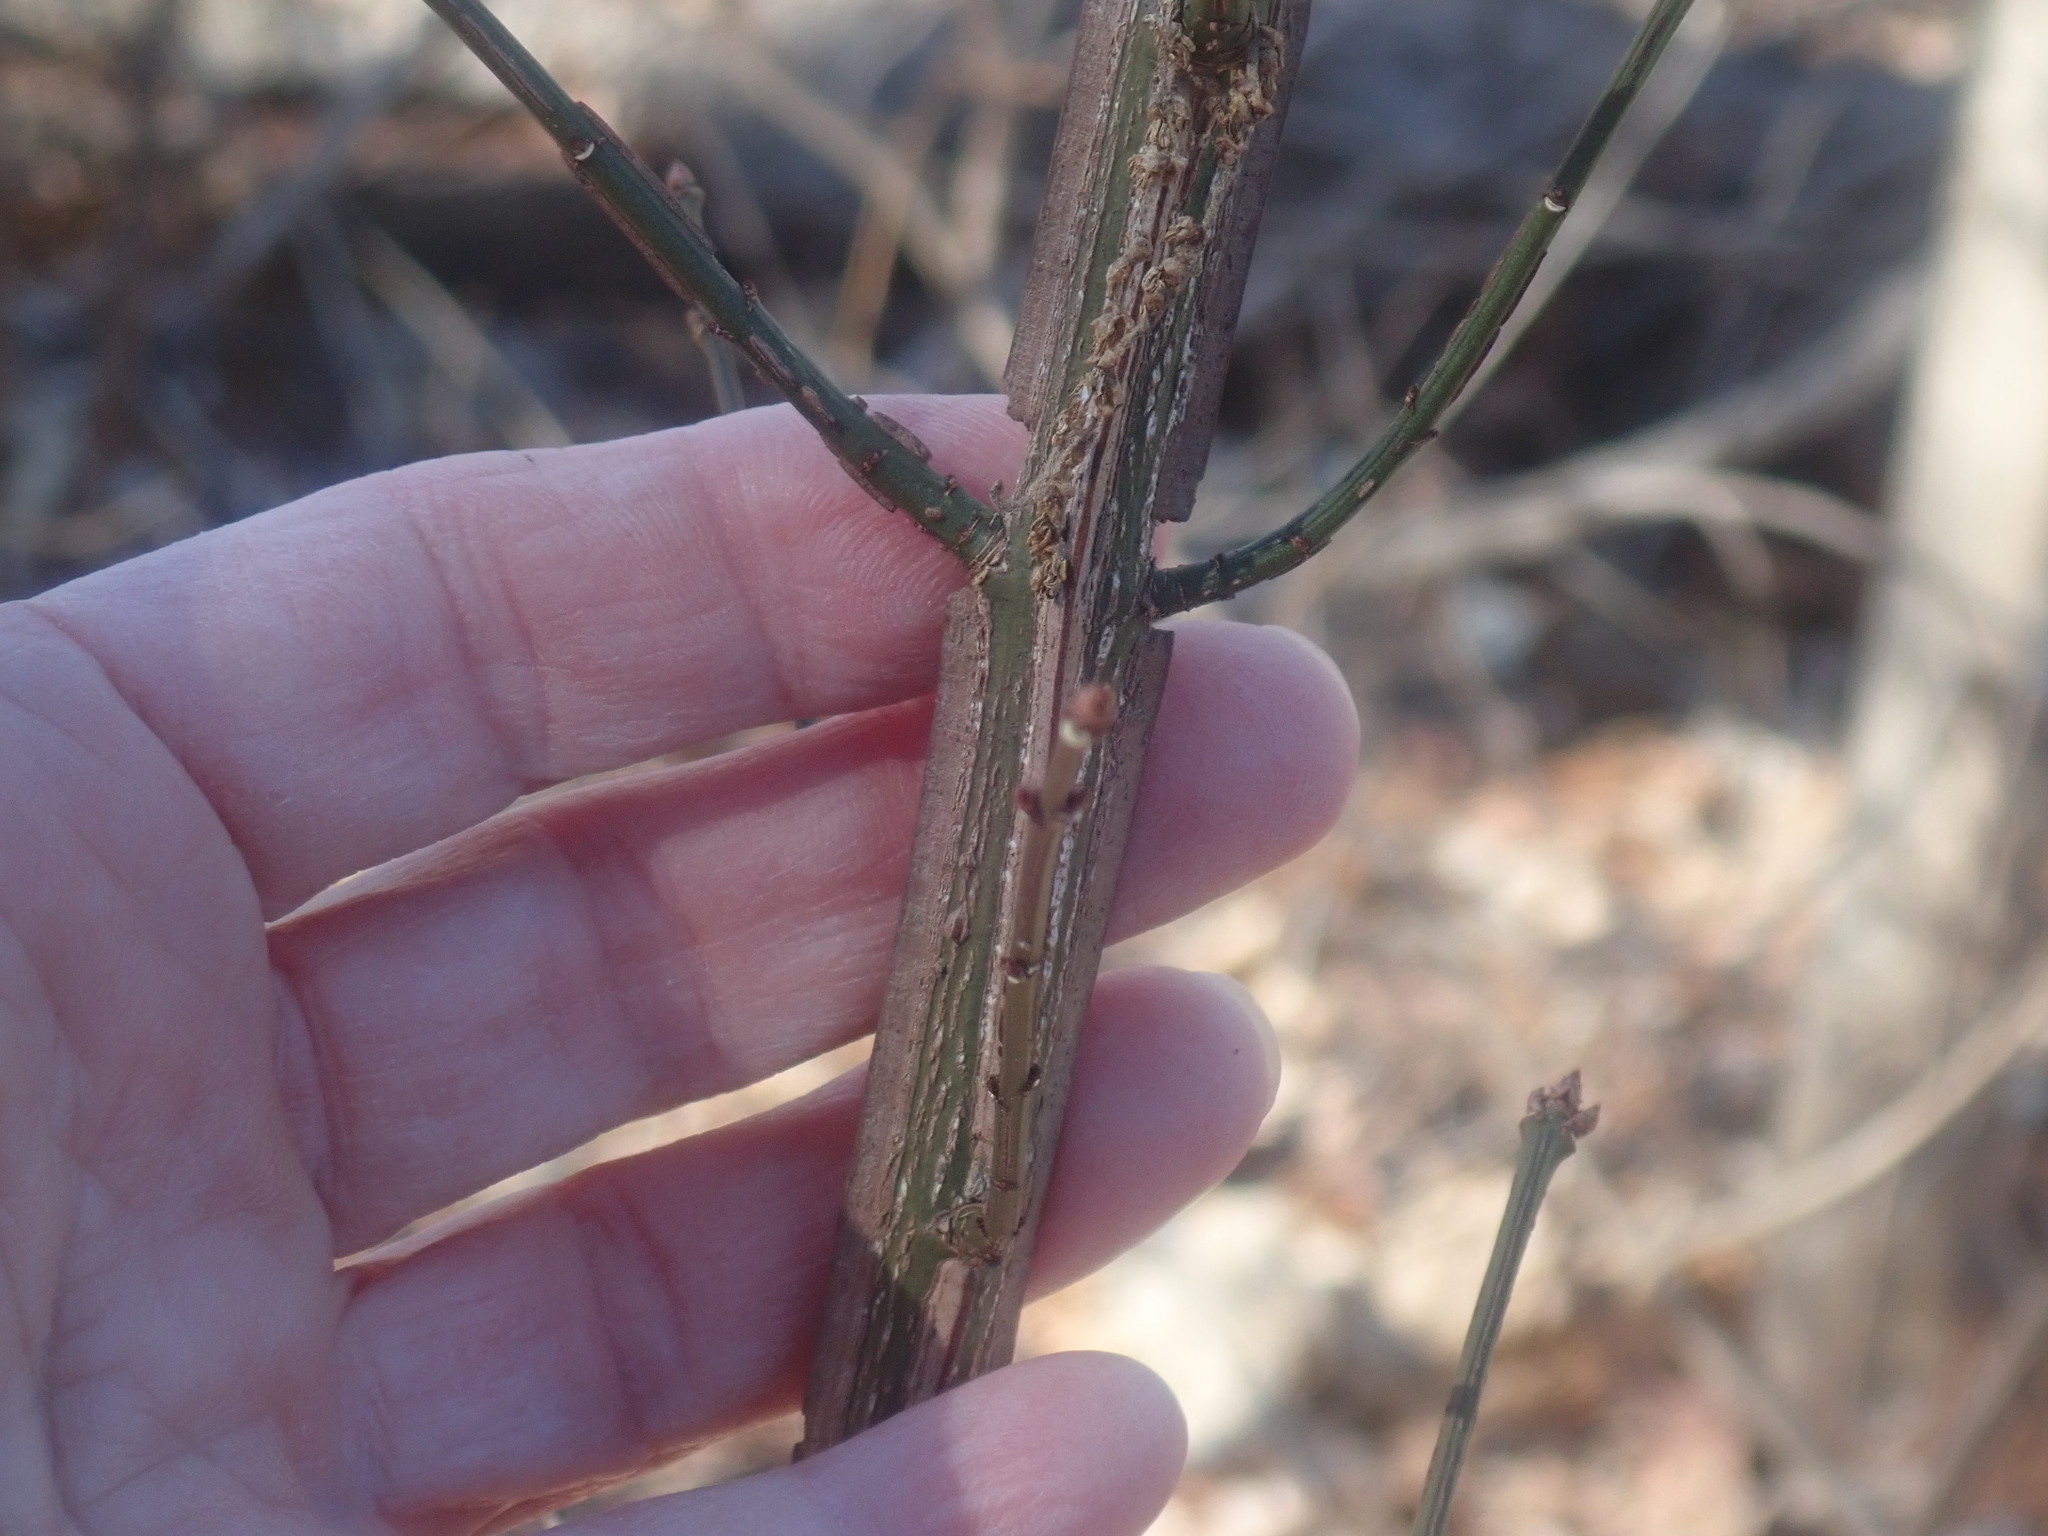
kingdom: Plantae
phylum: Tracheophyta
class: Magnoliopsida
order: Celastrales
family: Celastraceae
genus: Euonymus
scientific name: Euonymus alatus
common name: Winged euonymus
